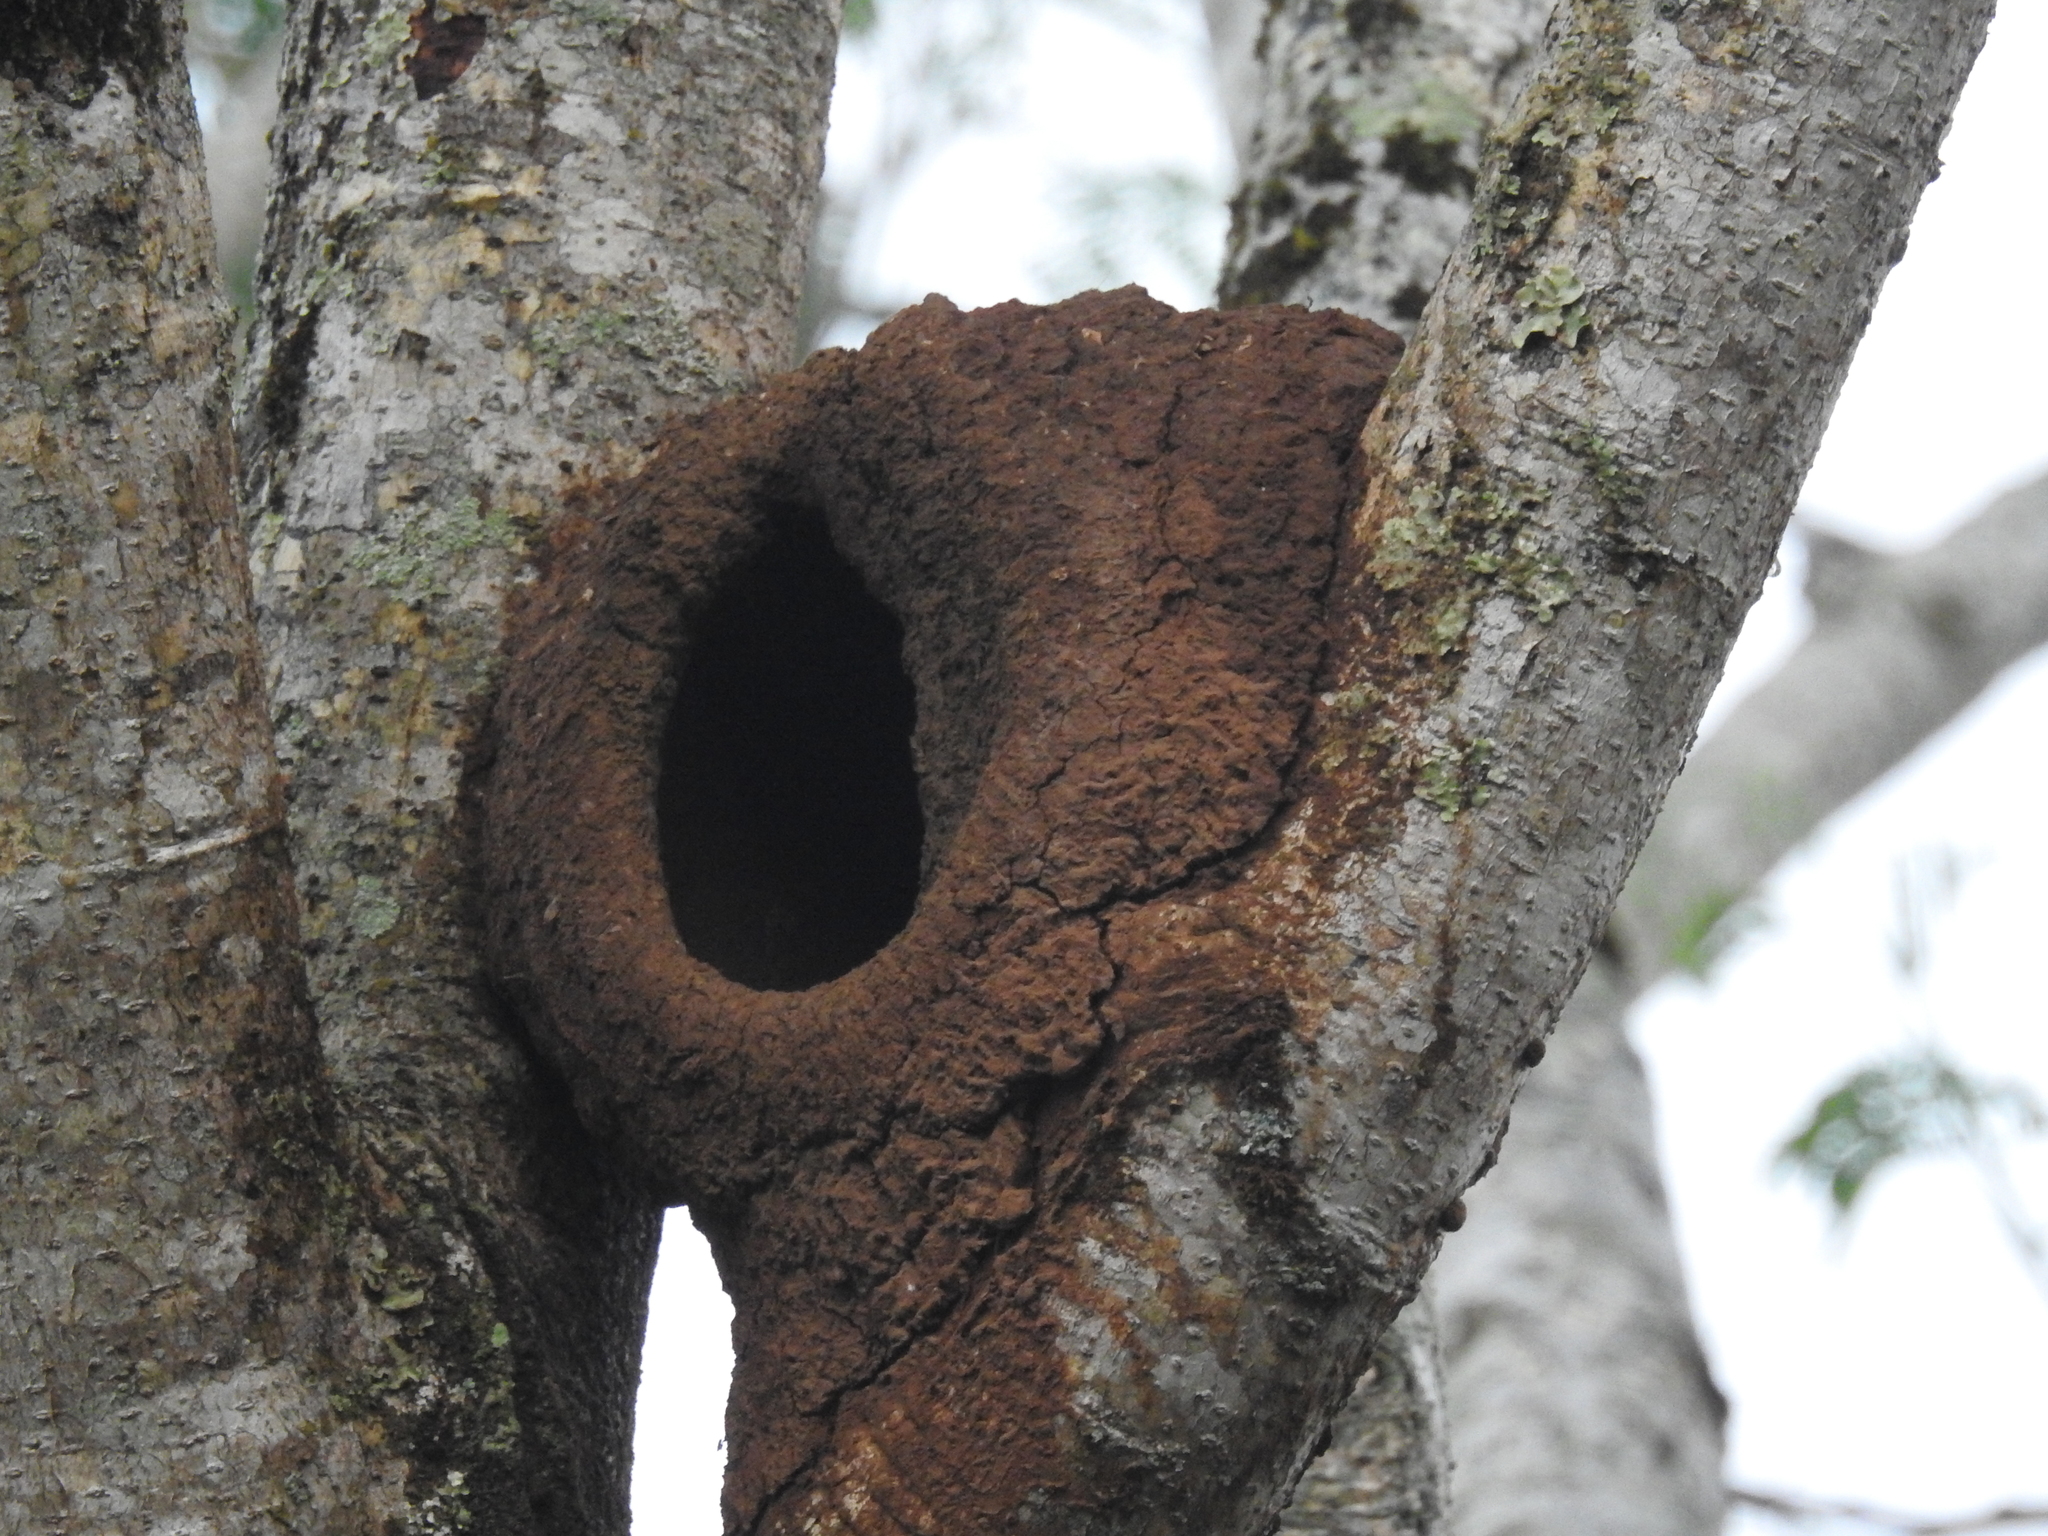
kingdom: Animalia
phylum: Chordata
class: Aves
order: Passeriformes
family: Furnariidae
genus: Furnarius
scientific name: Furnarius rufus
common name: Rufous hornero
